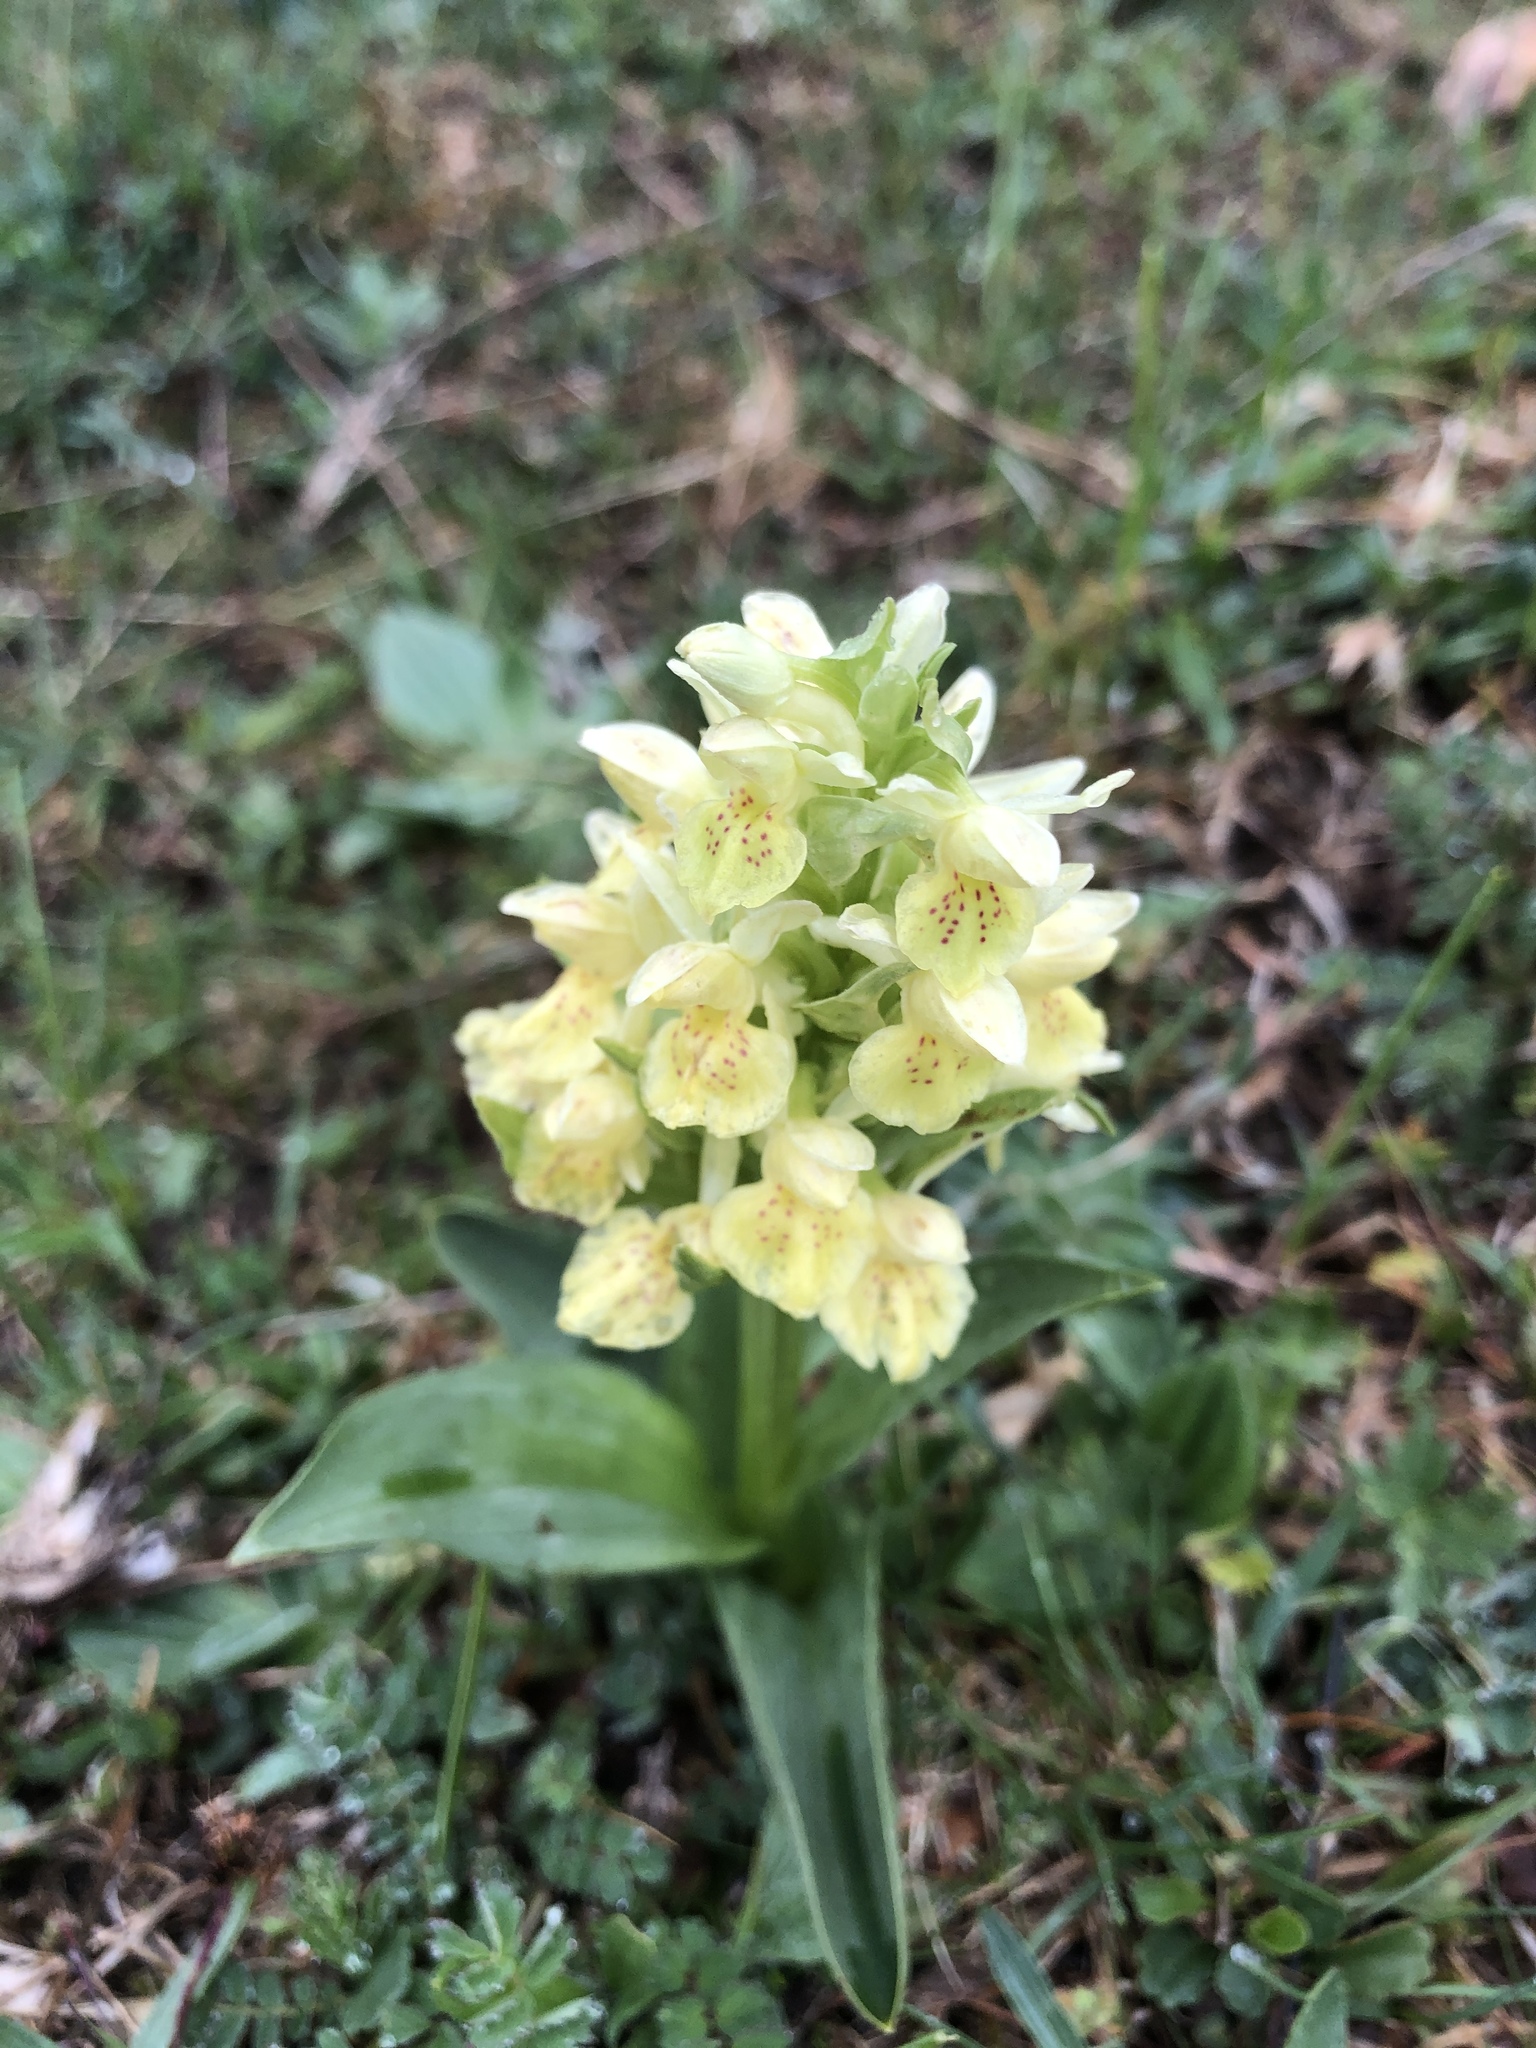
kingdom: Plantae
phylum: Tracheophyta
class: Liliopsida
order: Asparagales
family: Orchidaceae
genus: Dactylorhiza
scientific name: Dactylorhiza sambucina
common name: Elder-flowered orchid
